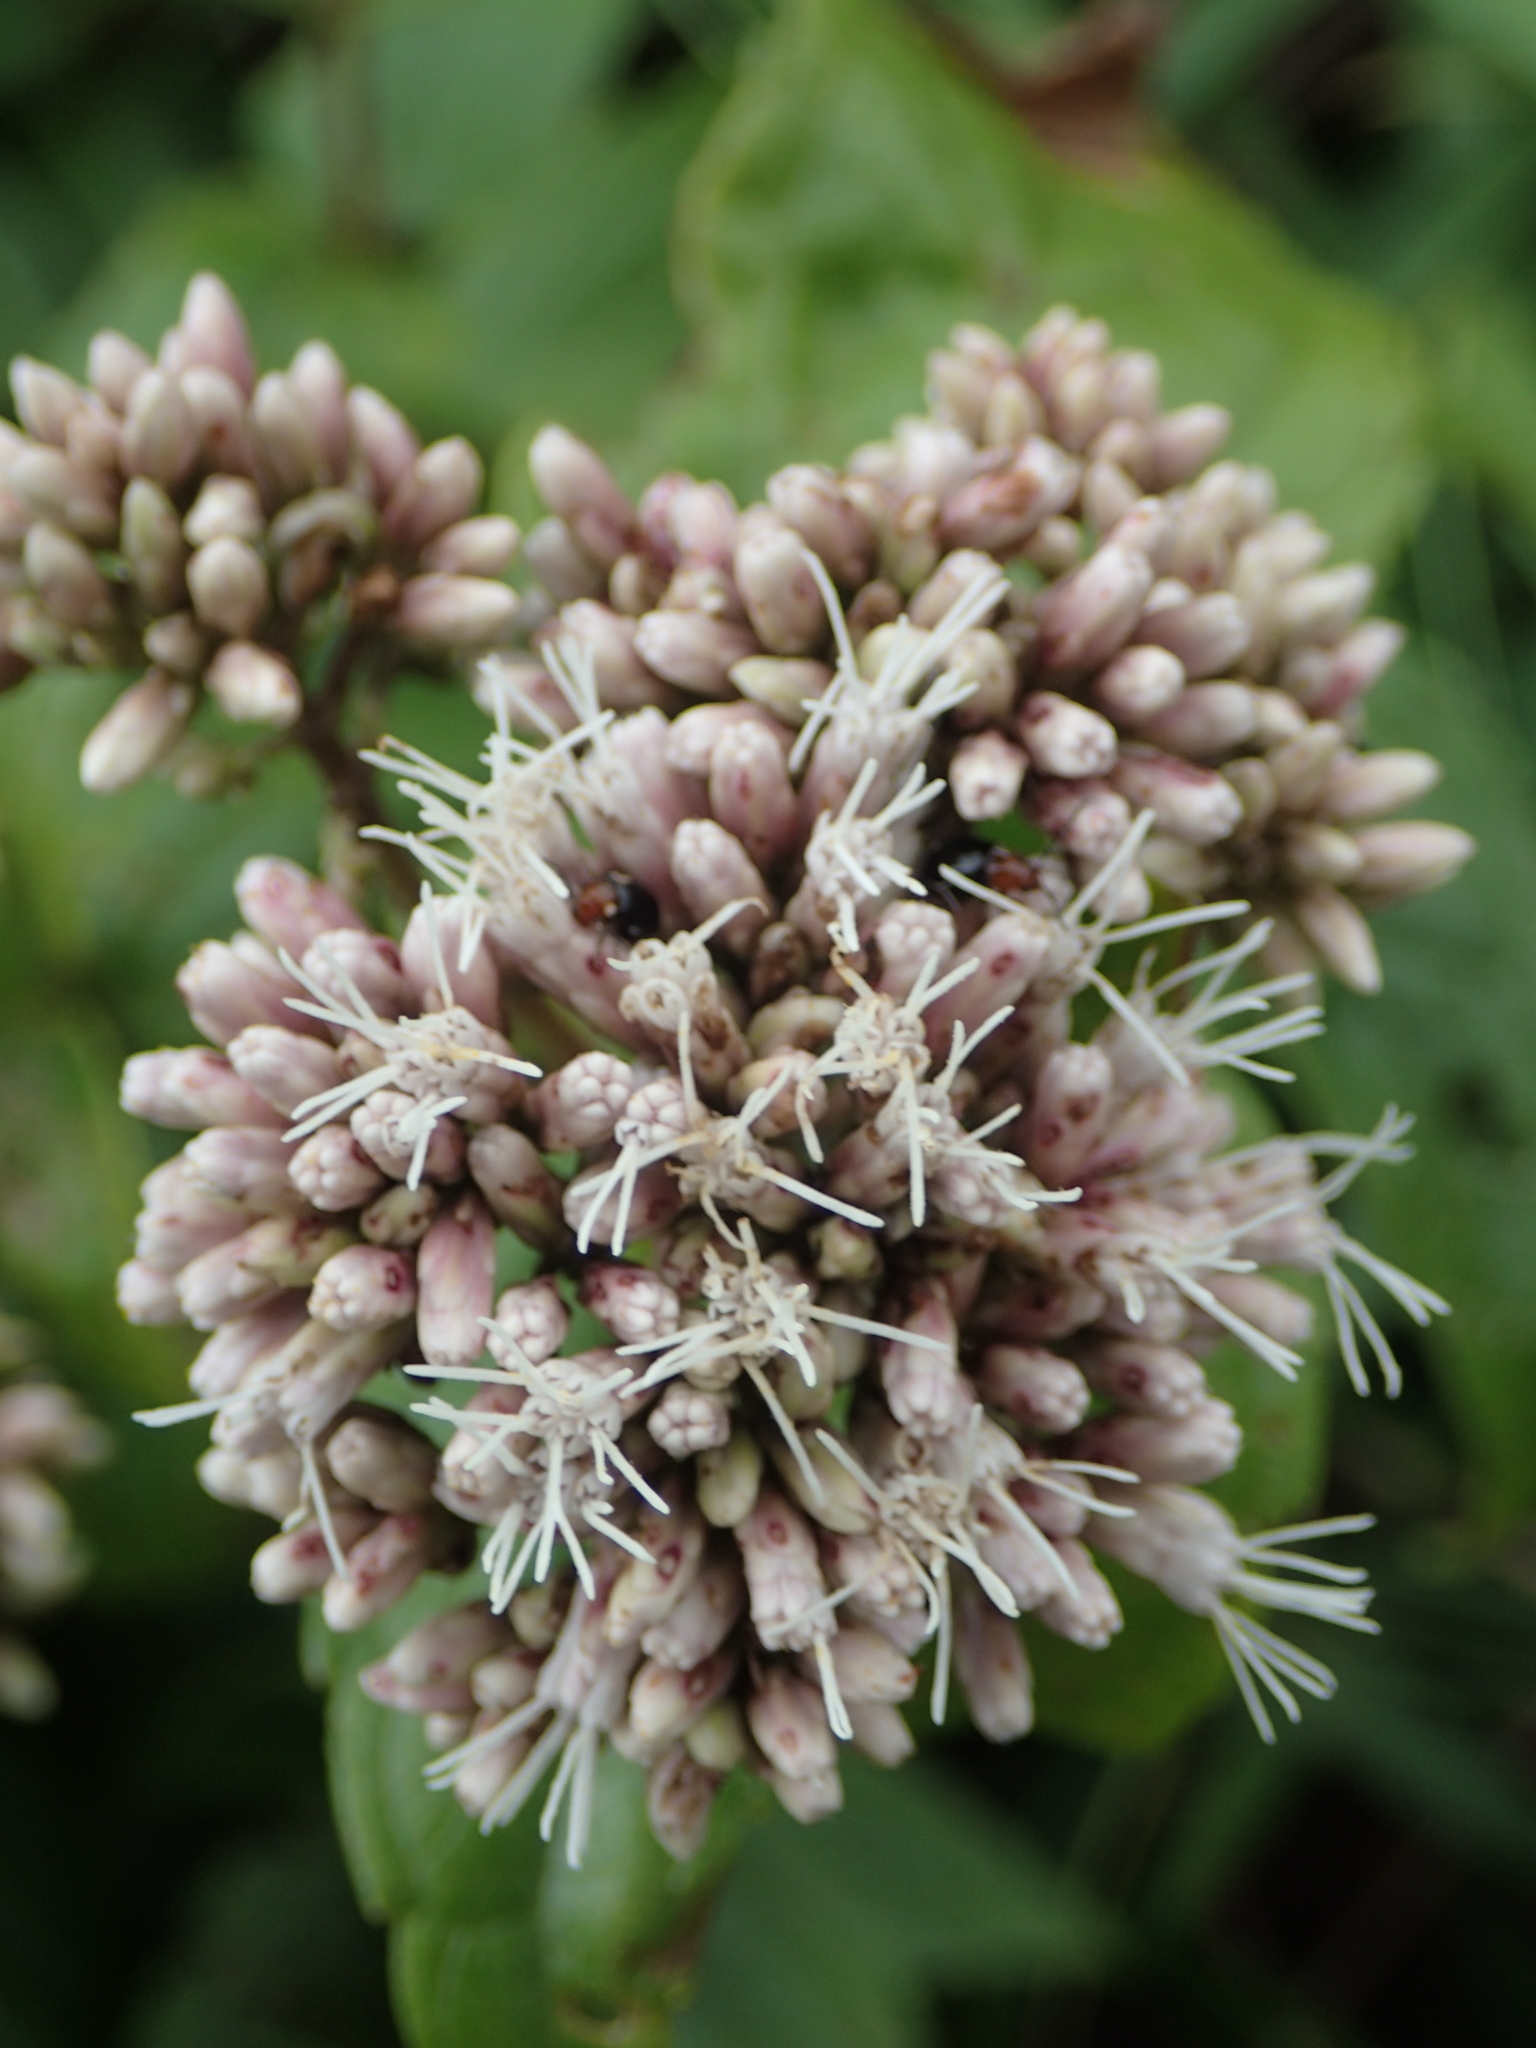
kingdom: Plantae
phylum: Tracheophyta
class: Magnoliopsida
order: Asterales
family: Asteraceae
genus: Eupatorium
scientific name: Eupatorium luchuense
